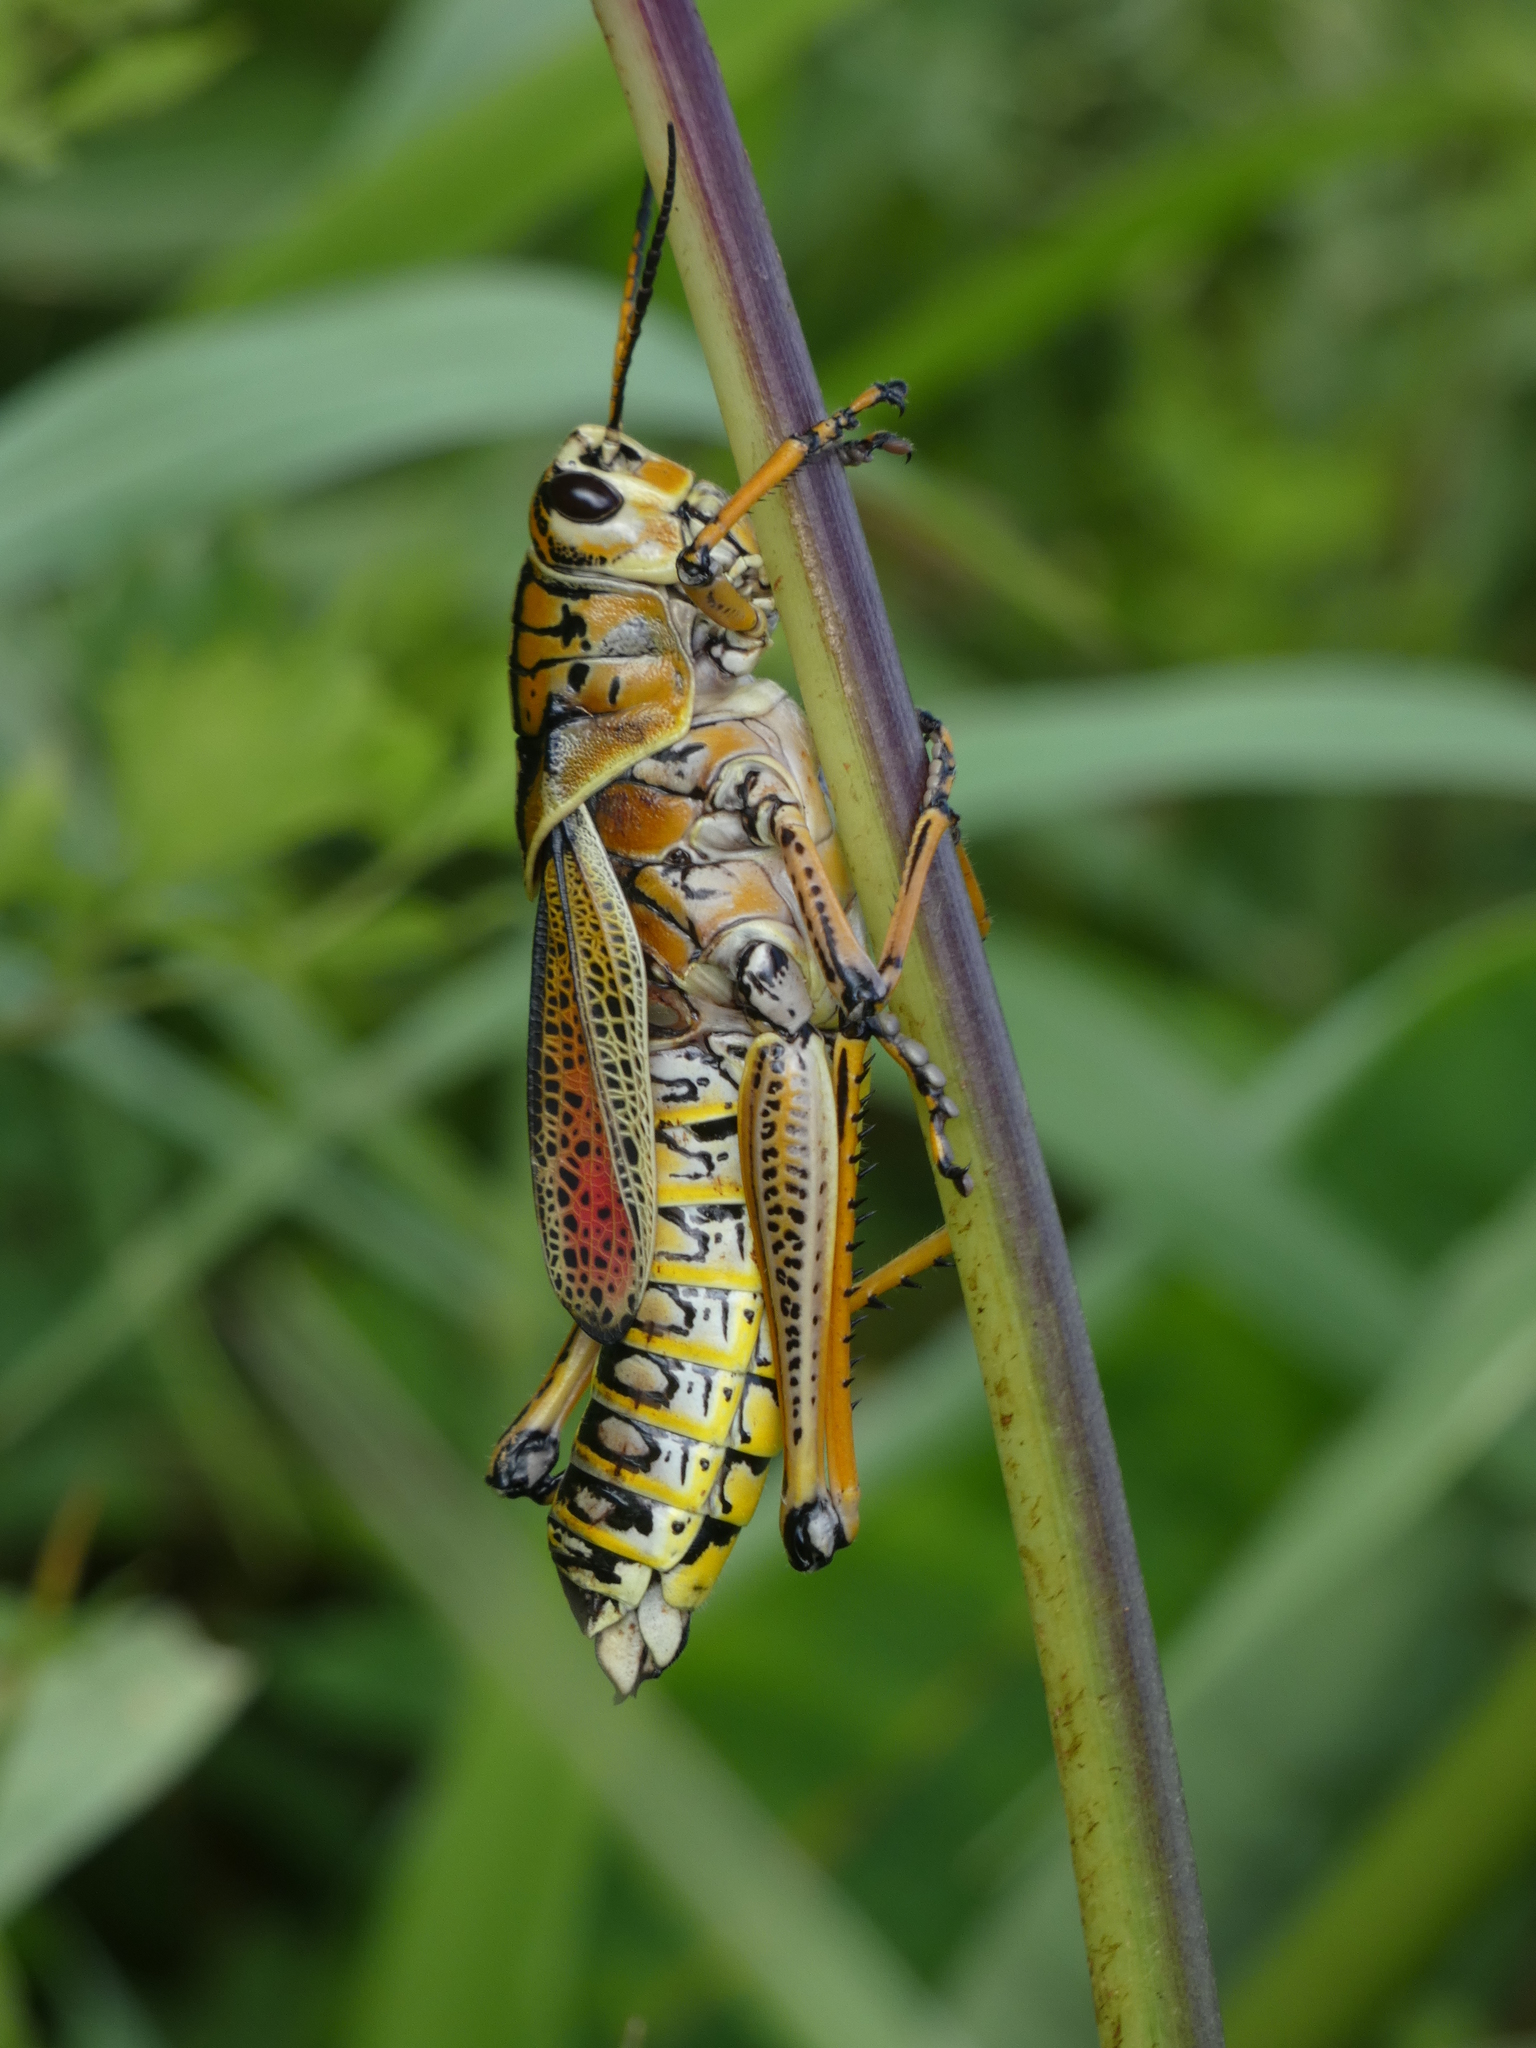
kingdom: Animalia
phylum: Arthropoda
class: Insecta
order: Orthoptera
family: Romaleidae
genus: Romalea
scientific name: Romalea microptera
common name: Eastern lubber grasshopper
